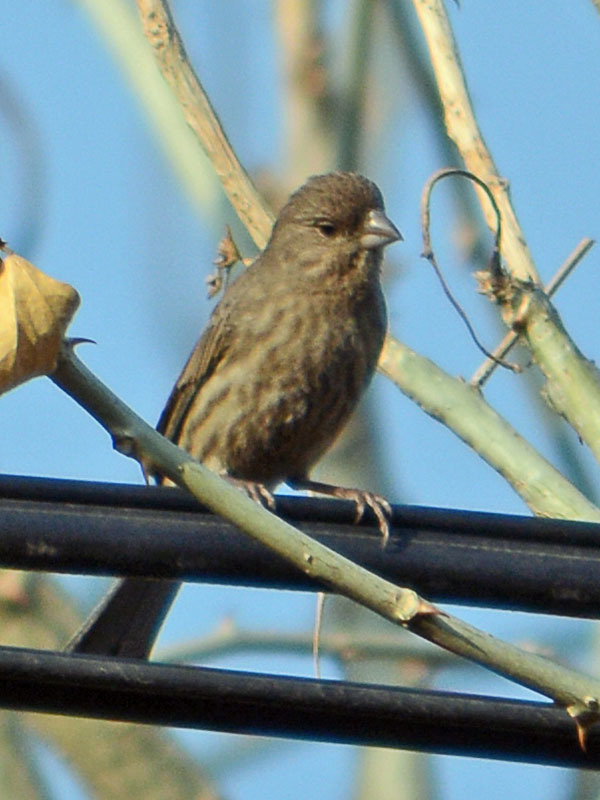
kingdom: Animalia
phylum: Chordata
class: Aves
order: Passeriformes
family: Fringillidae
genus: Haemorhous
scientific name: Haemorhous mexicanus
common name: House finch
